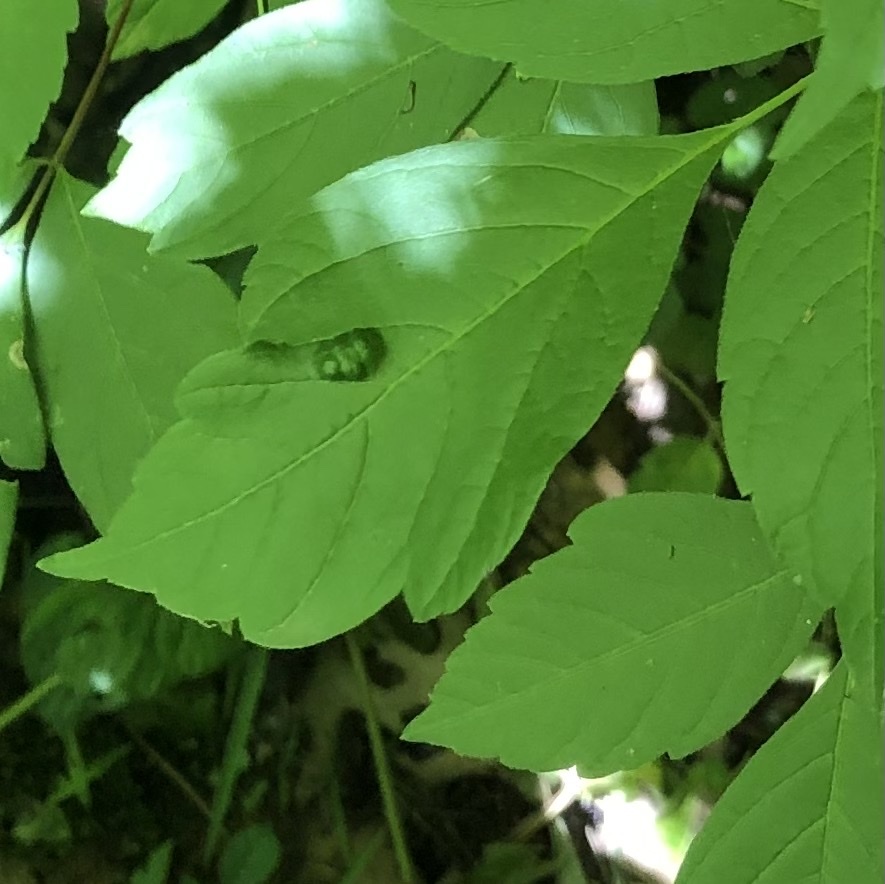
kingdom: Animalia
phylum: Arthropoda
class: Arachnida
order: Trombidiformes
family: Eriophyidae
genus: Aceria
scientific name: Aceria
